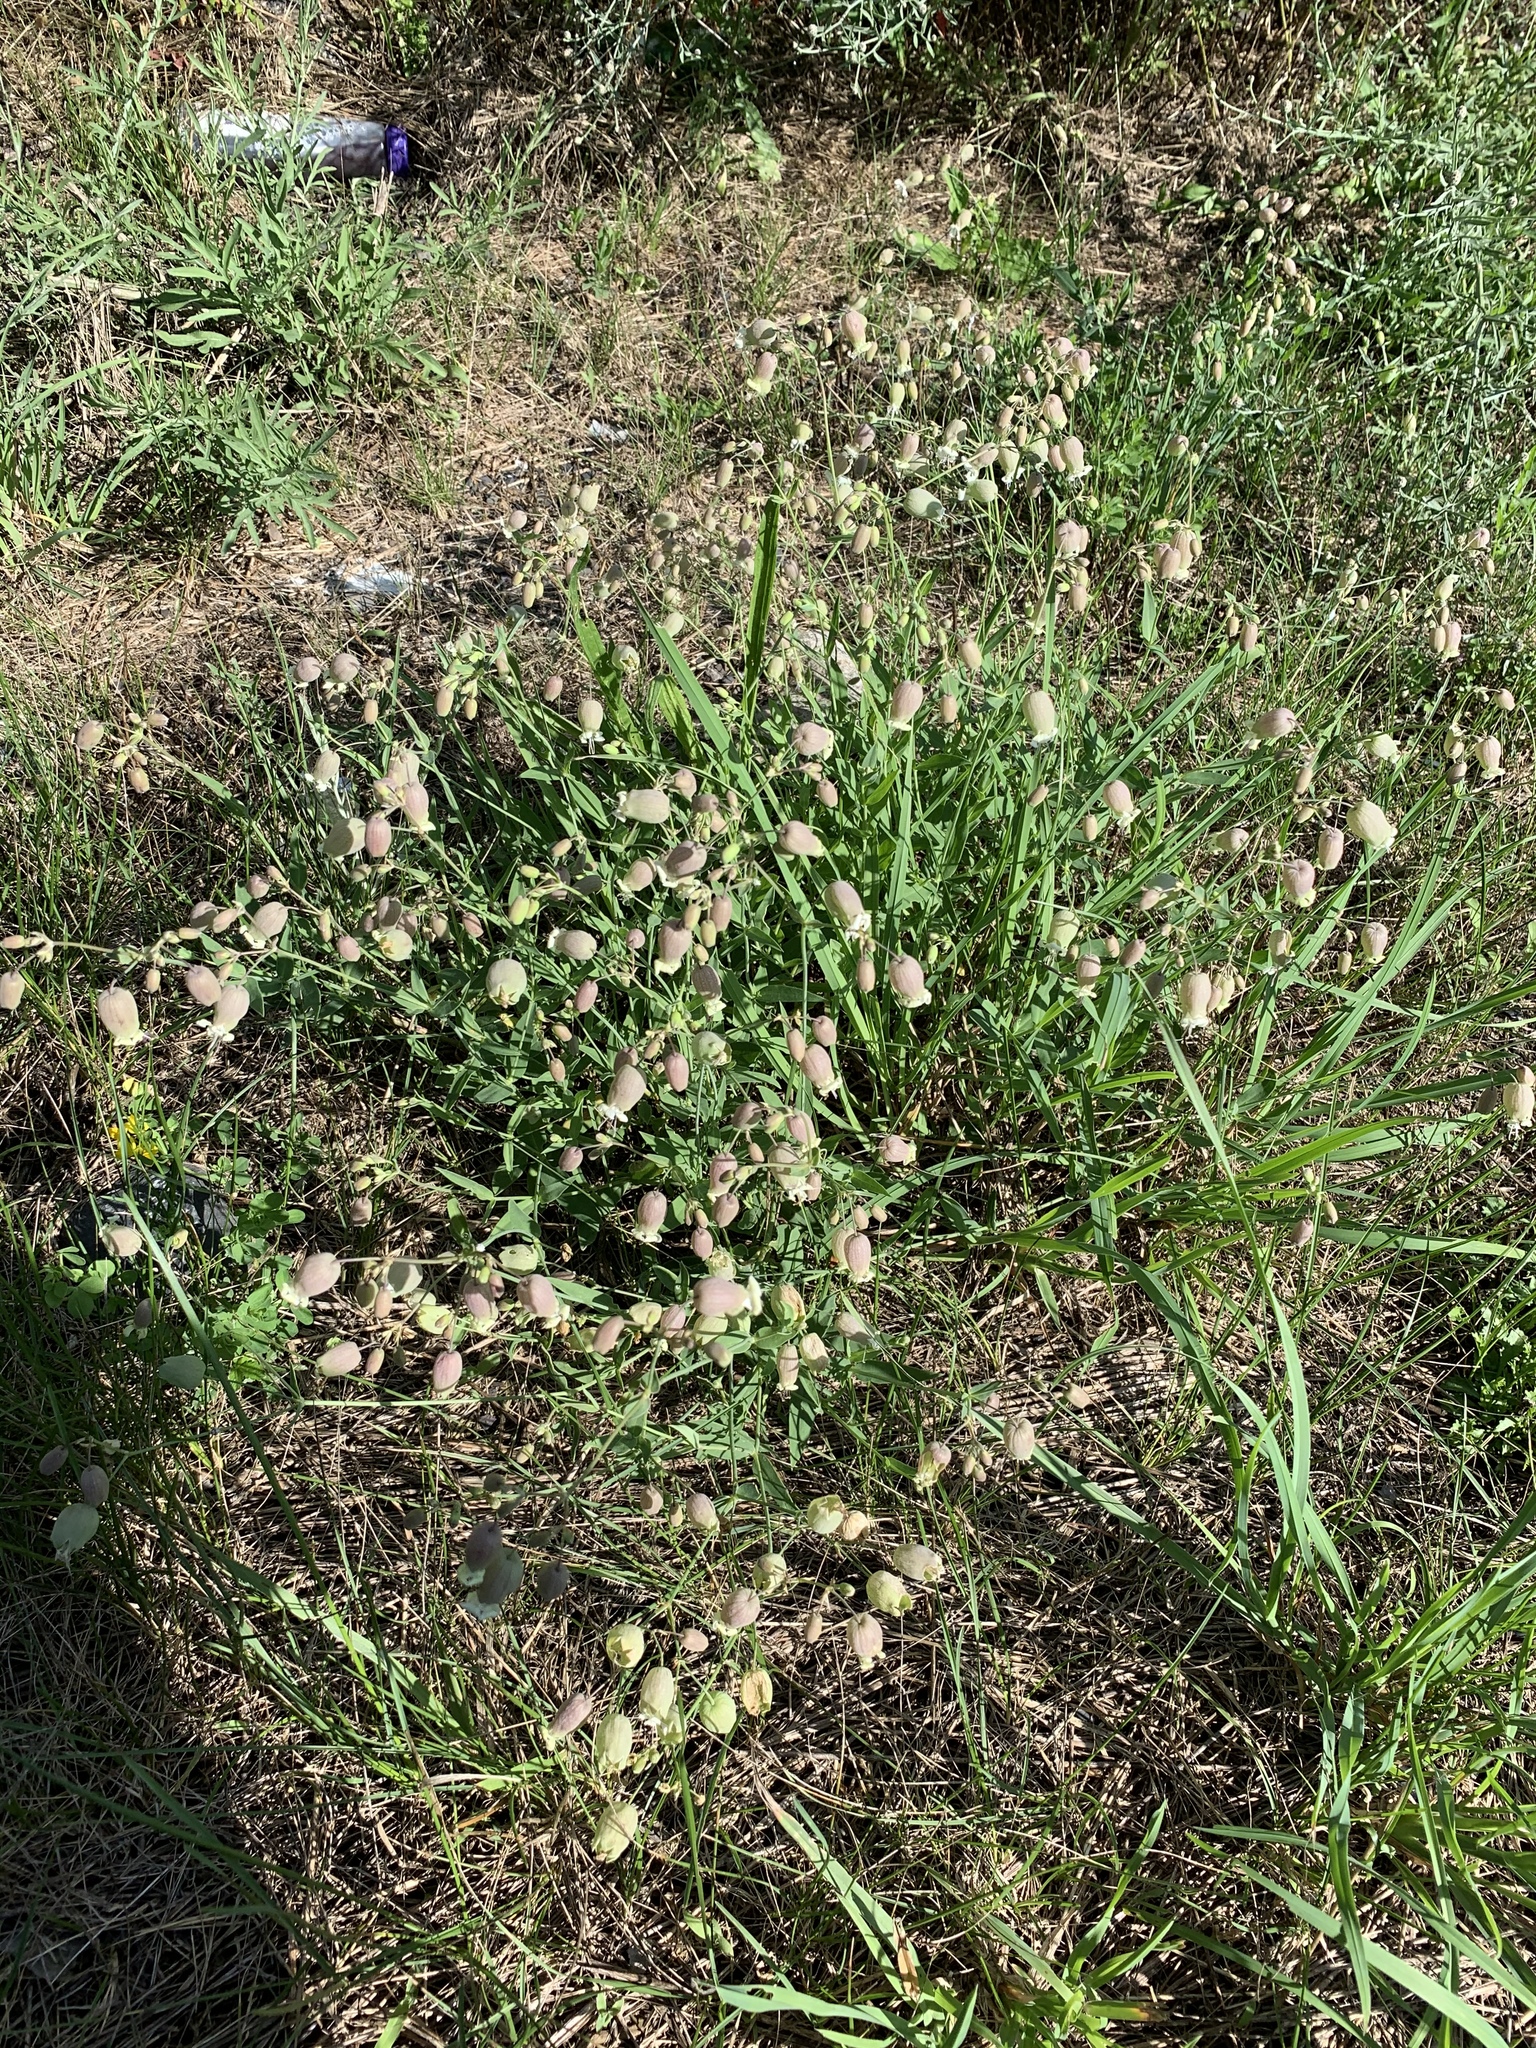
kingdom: Plantae
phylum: Tracheophyta
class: Magnoliopsida
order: Caryophyllales
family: Caryophyllaceae
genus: Silene
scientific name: Silene vulgaris
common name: Bladder campion
